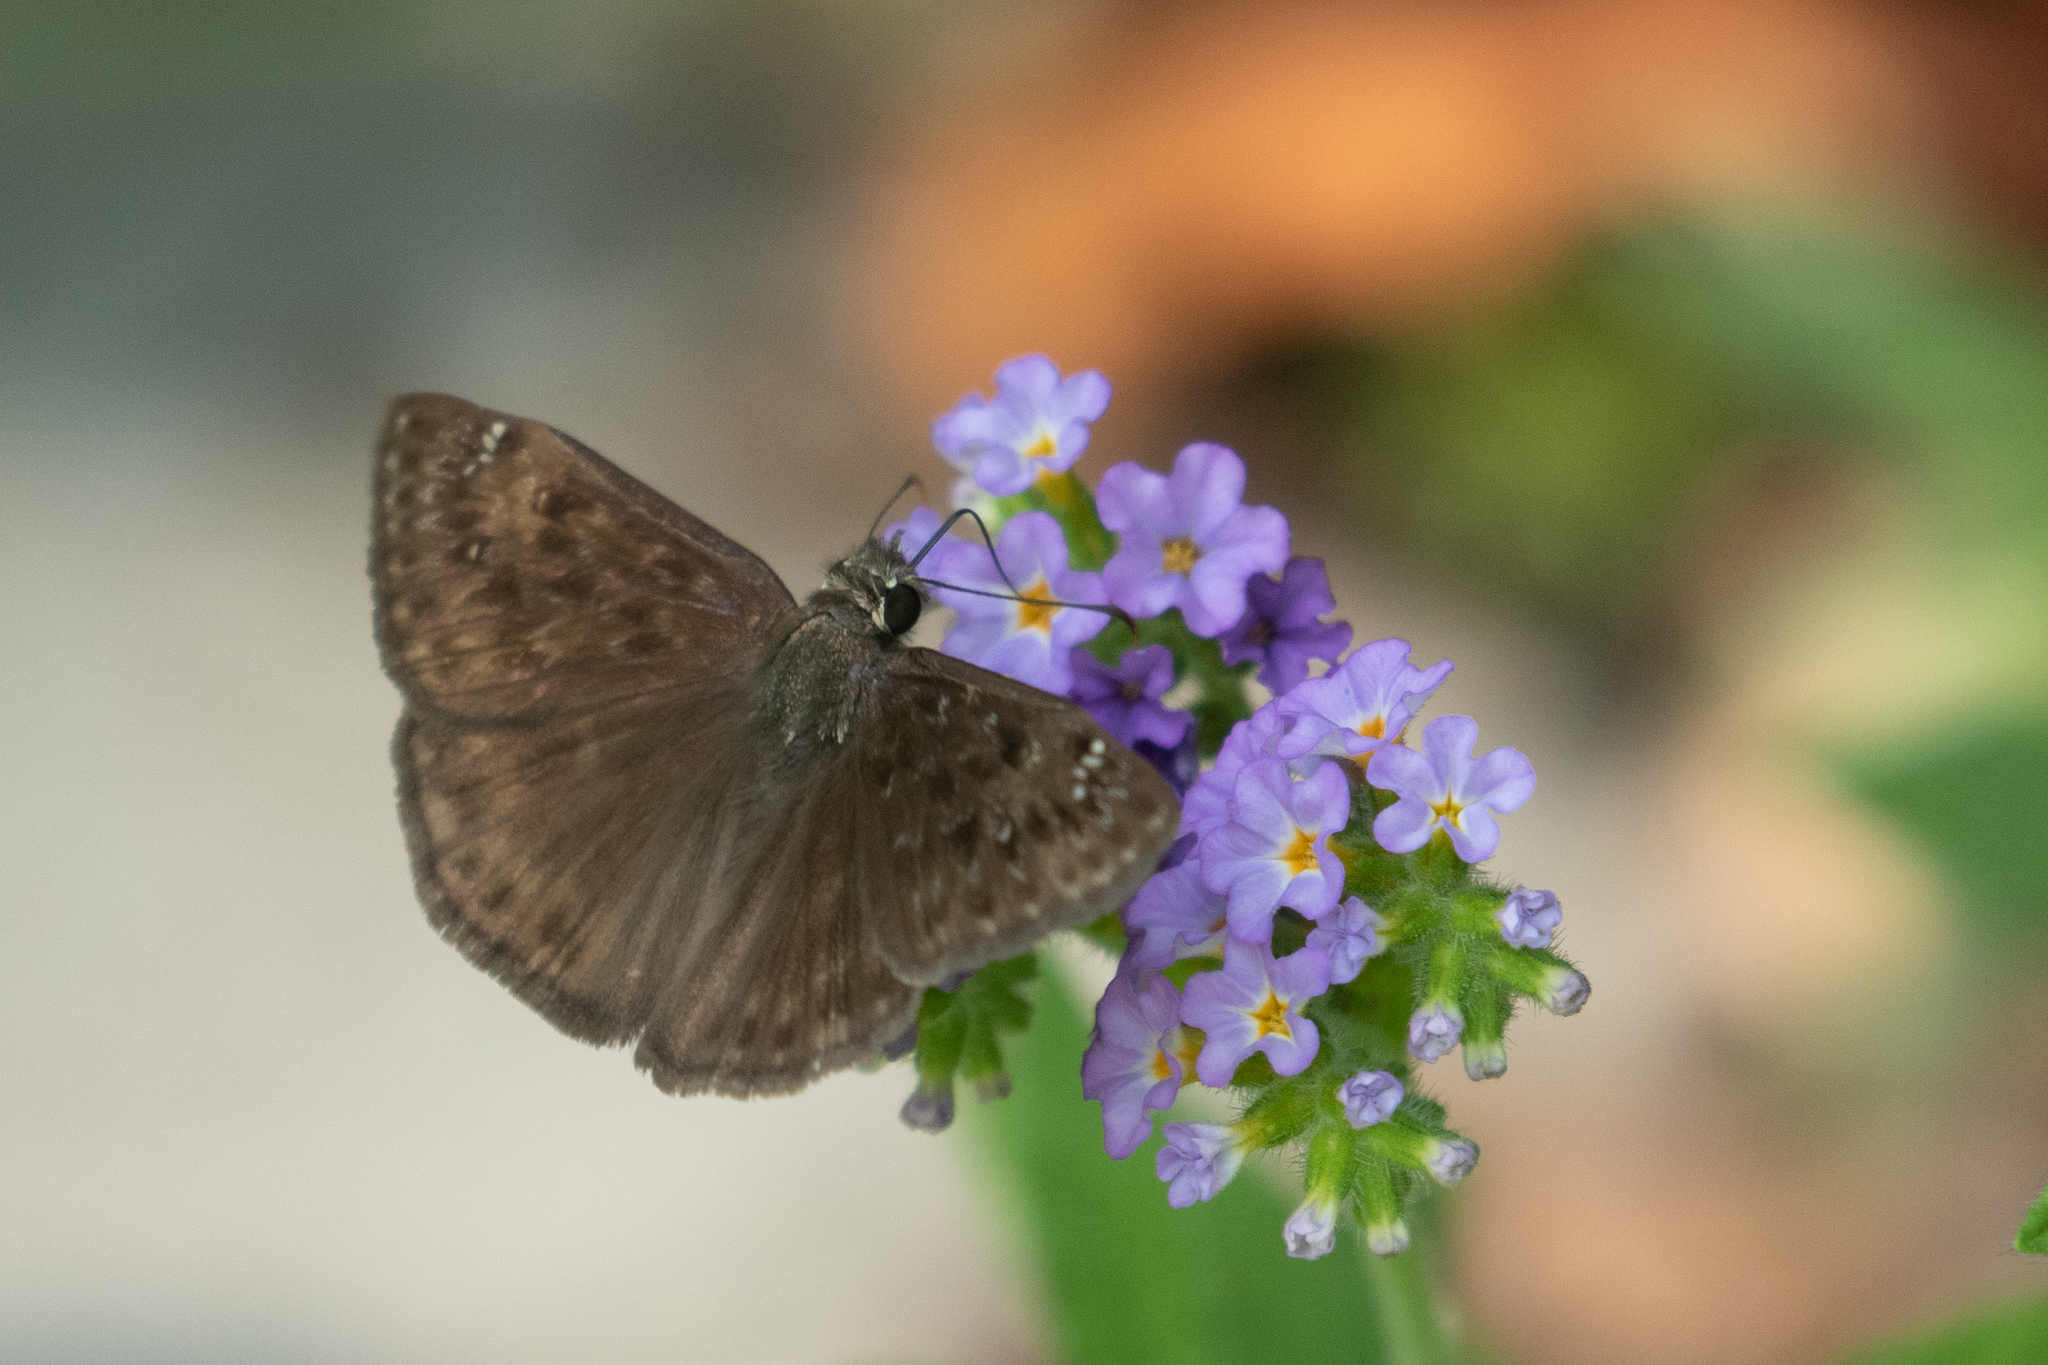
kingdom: Animalia
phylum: Arthropoda
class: Insecta
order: Lepidoptera
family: Hesperiidae
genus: Erynnis
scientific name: Erynnis horatius
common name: Horace's duskywing
